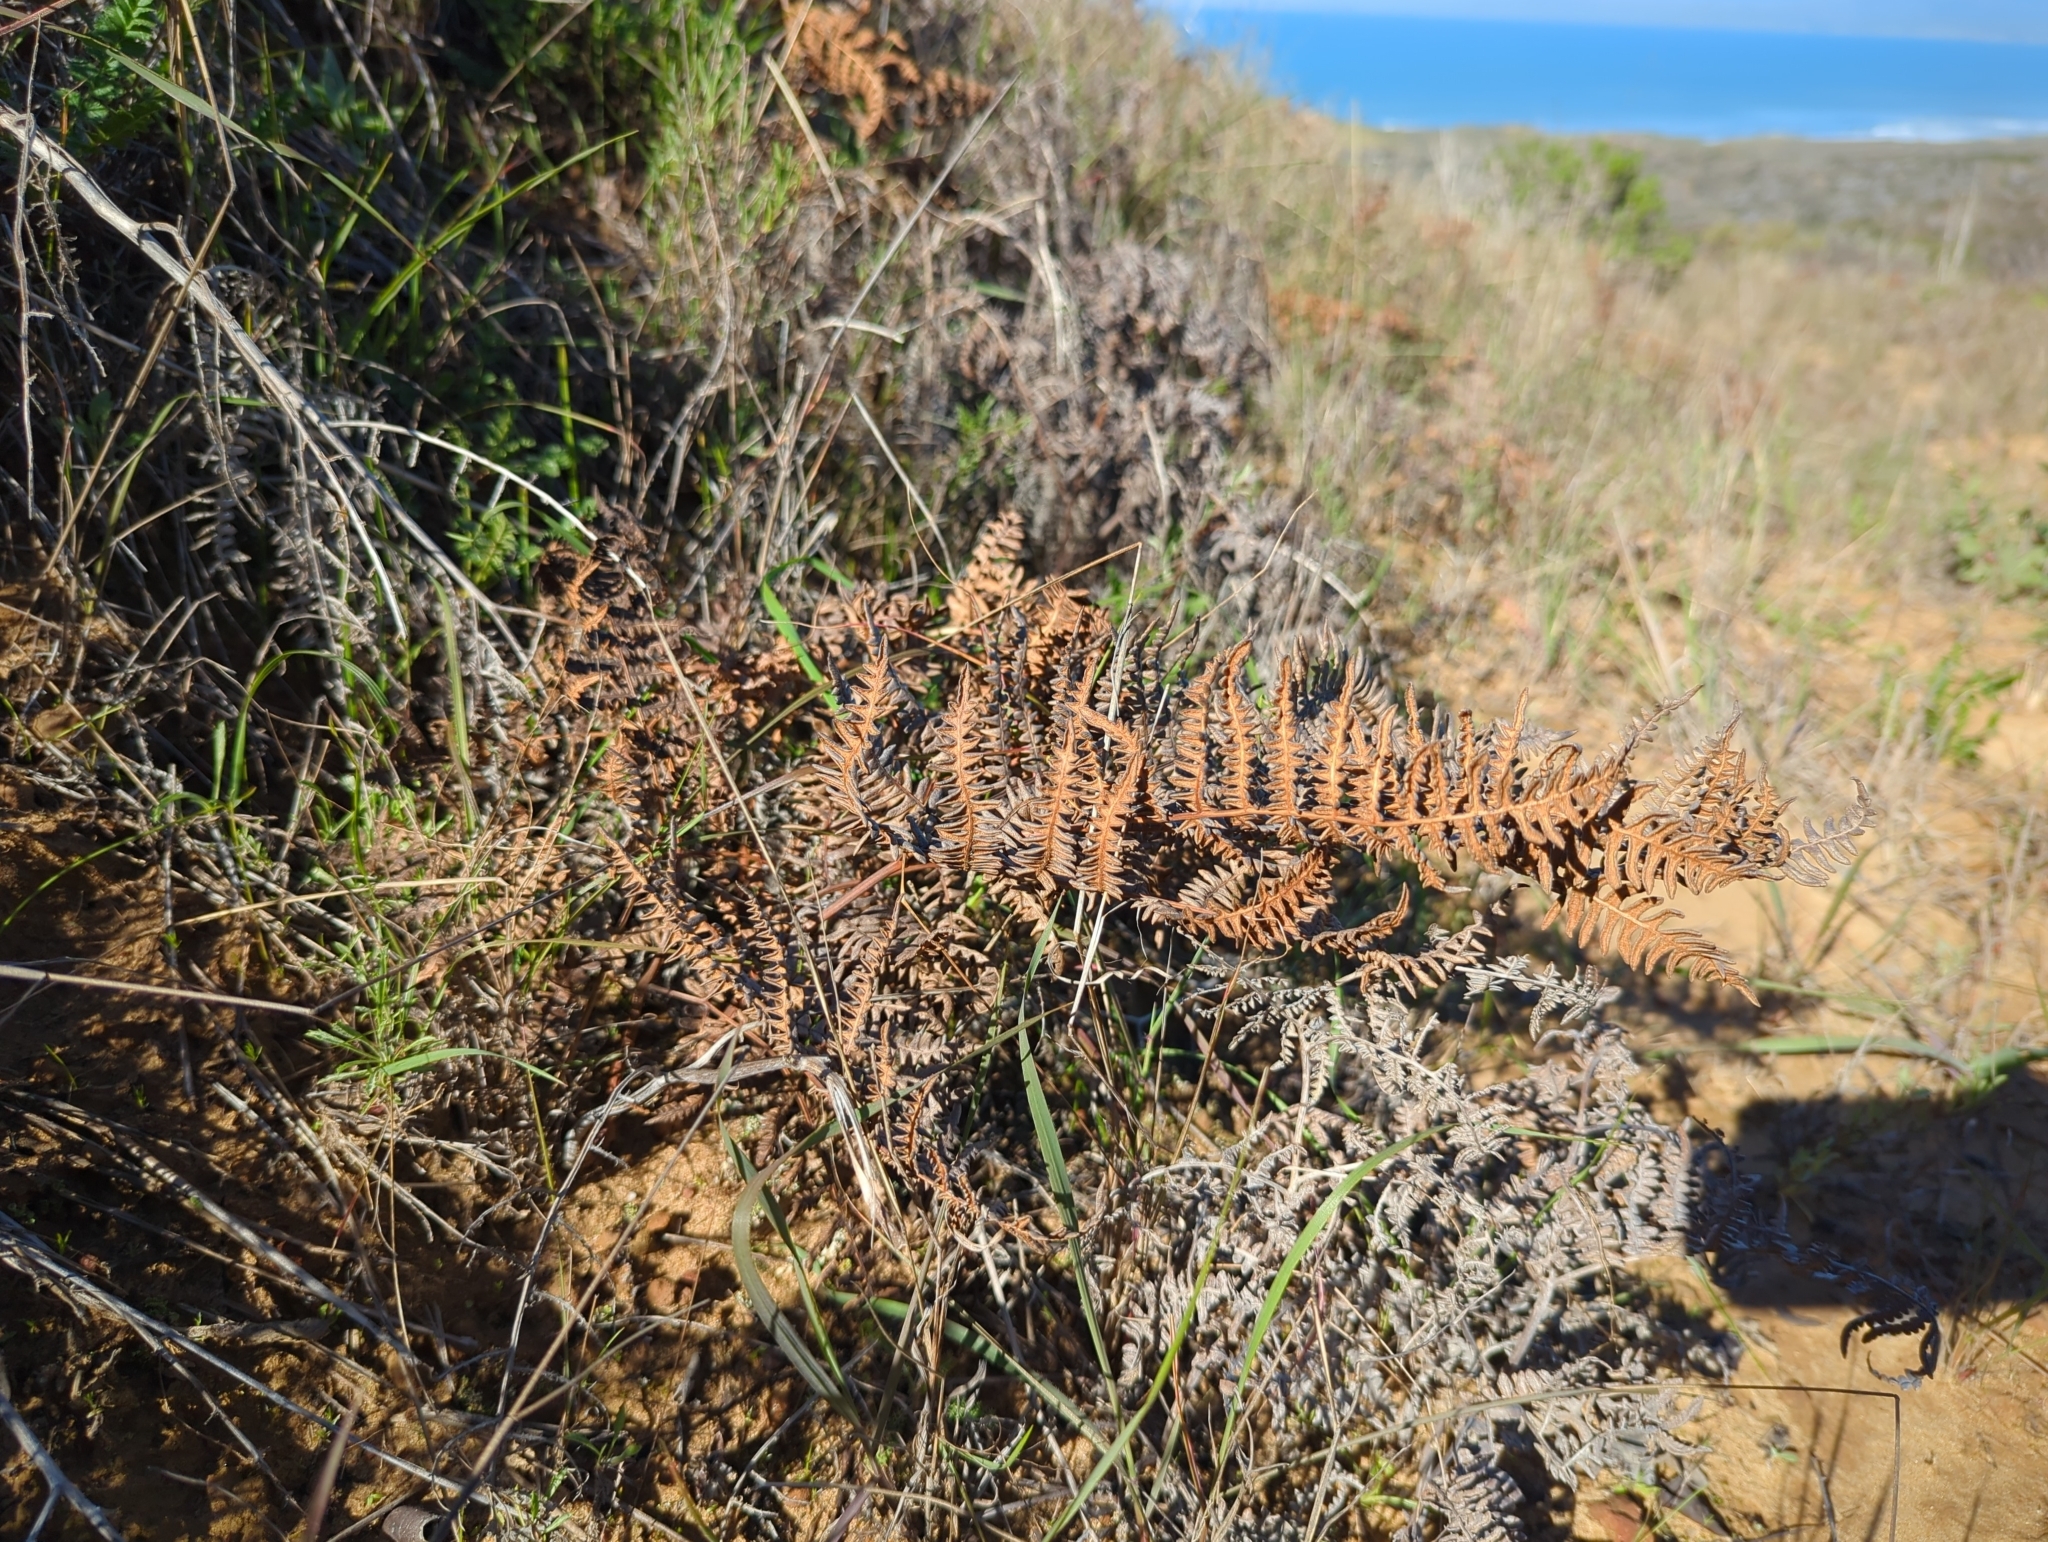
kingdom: Plantae
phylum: Tracheophyta
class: Polypodiopsida
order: Polypodiales
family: Dennstaedtiaceae
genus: Pteridium
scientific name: Pteridium aquilinum
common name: Bracken
